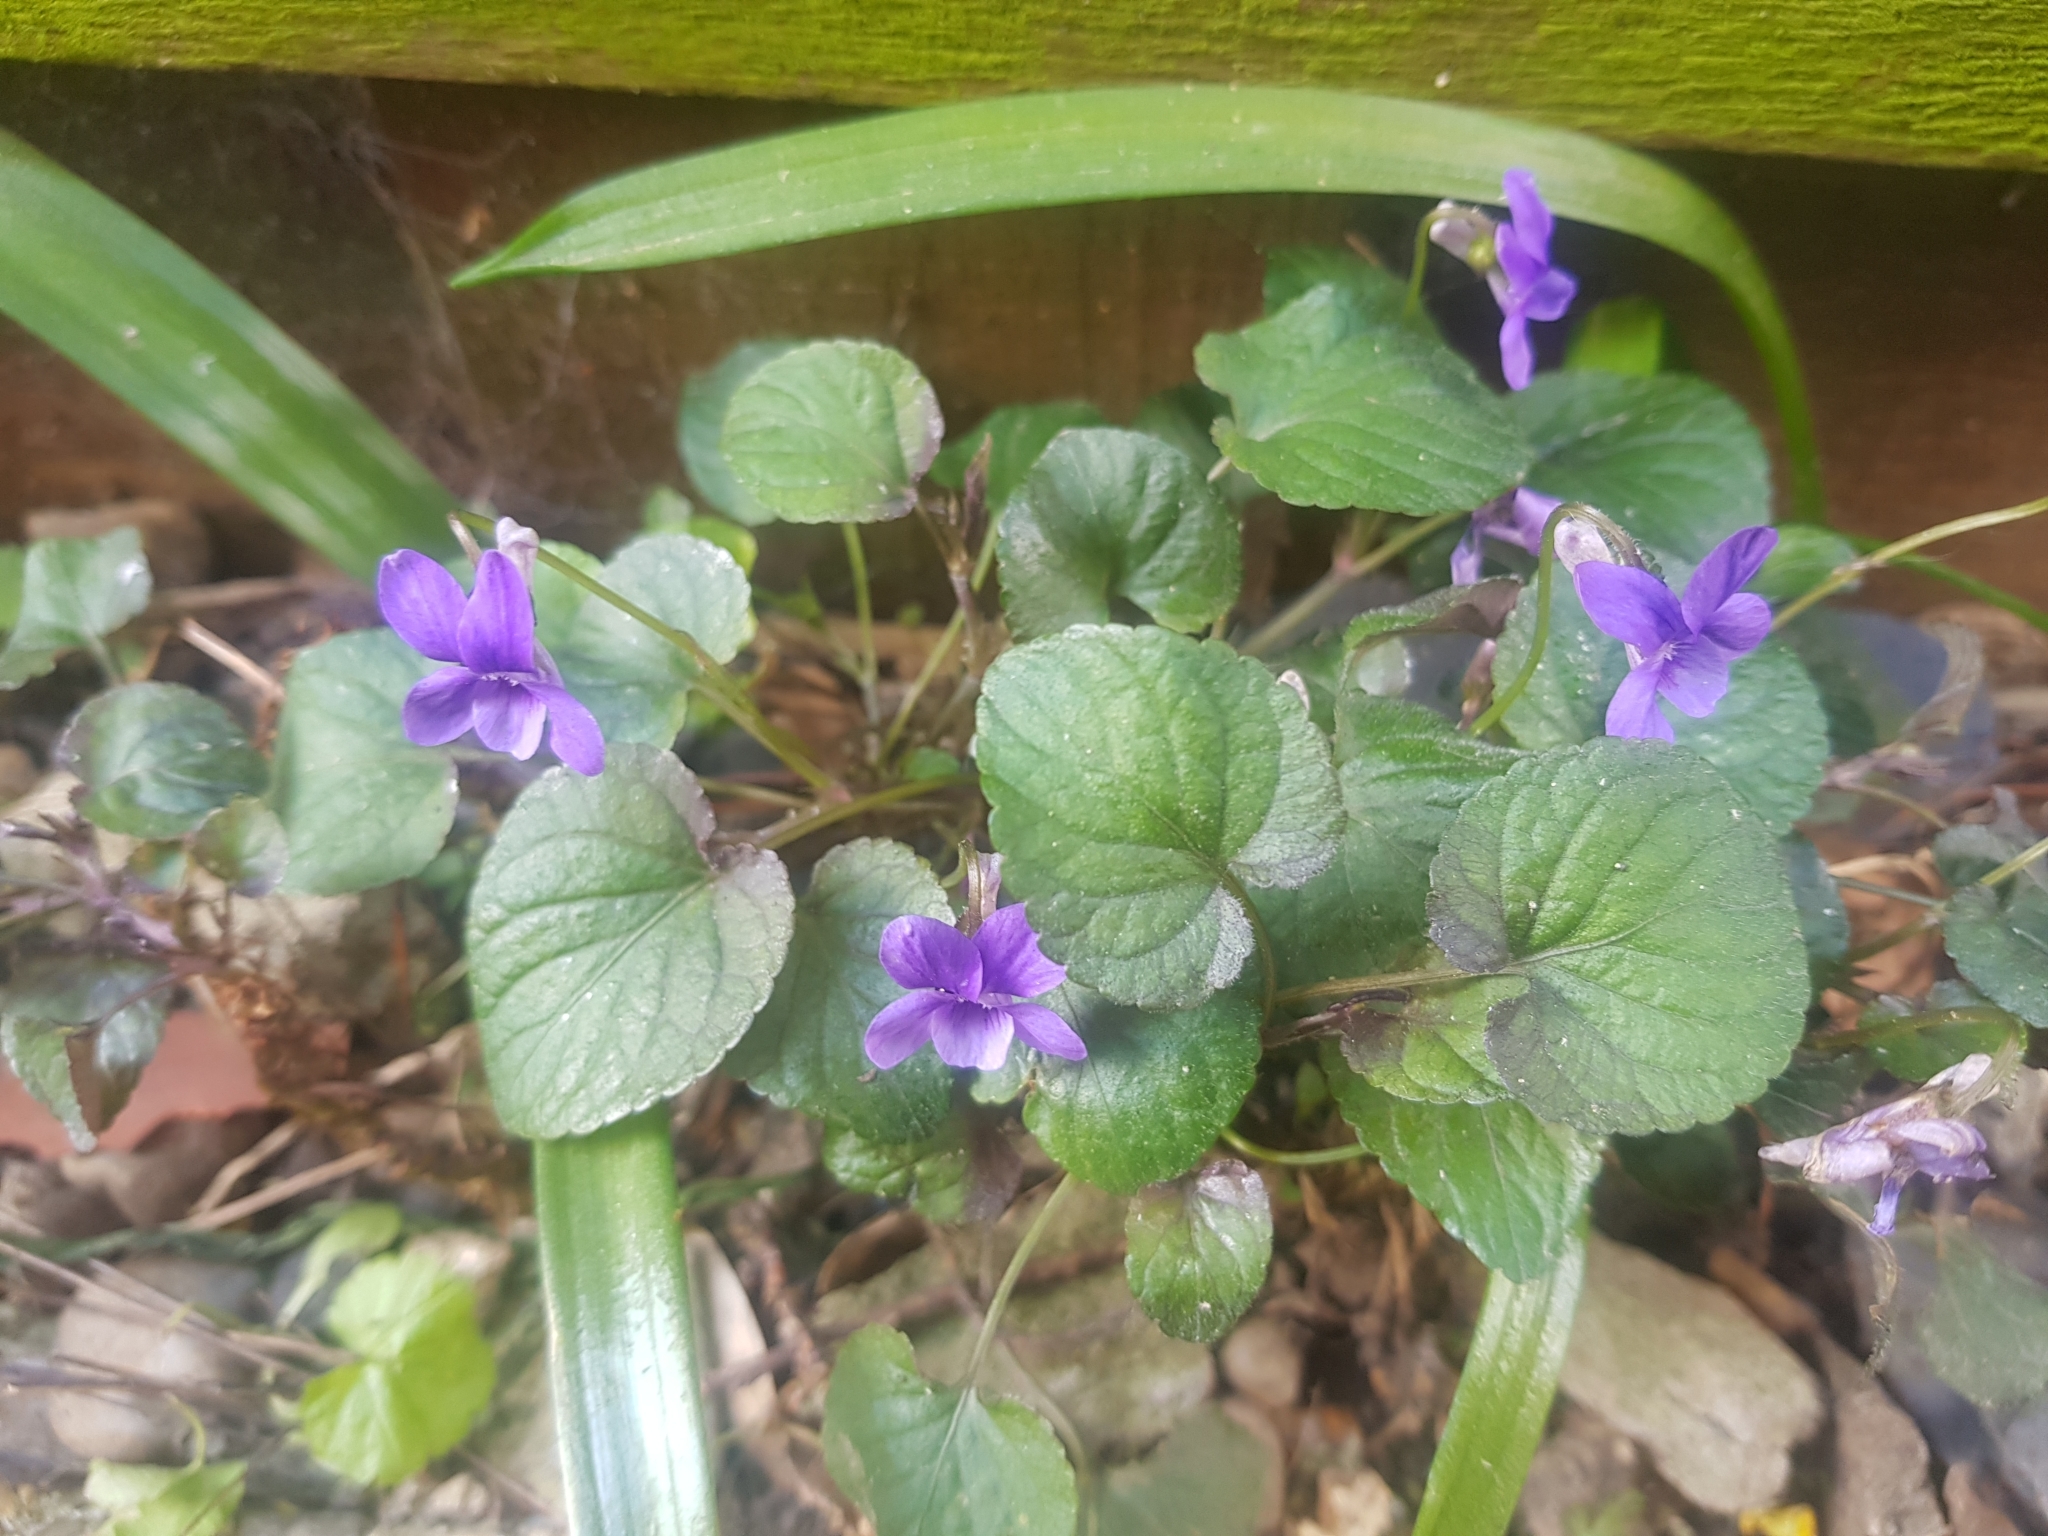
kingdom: Plantae
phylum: Tracheophyta
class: Magnoliopsida
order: Malpighiales
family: Violaceae
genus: Viola
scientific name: Viola riviniana
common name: Common dog-violet
